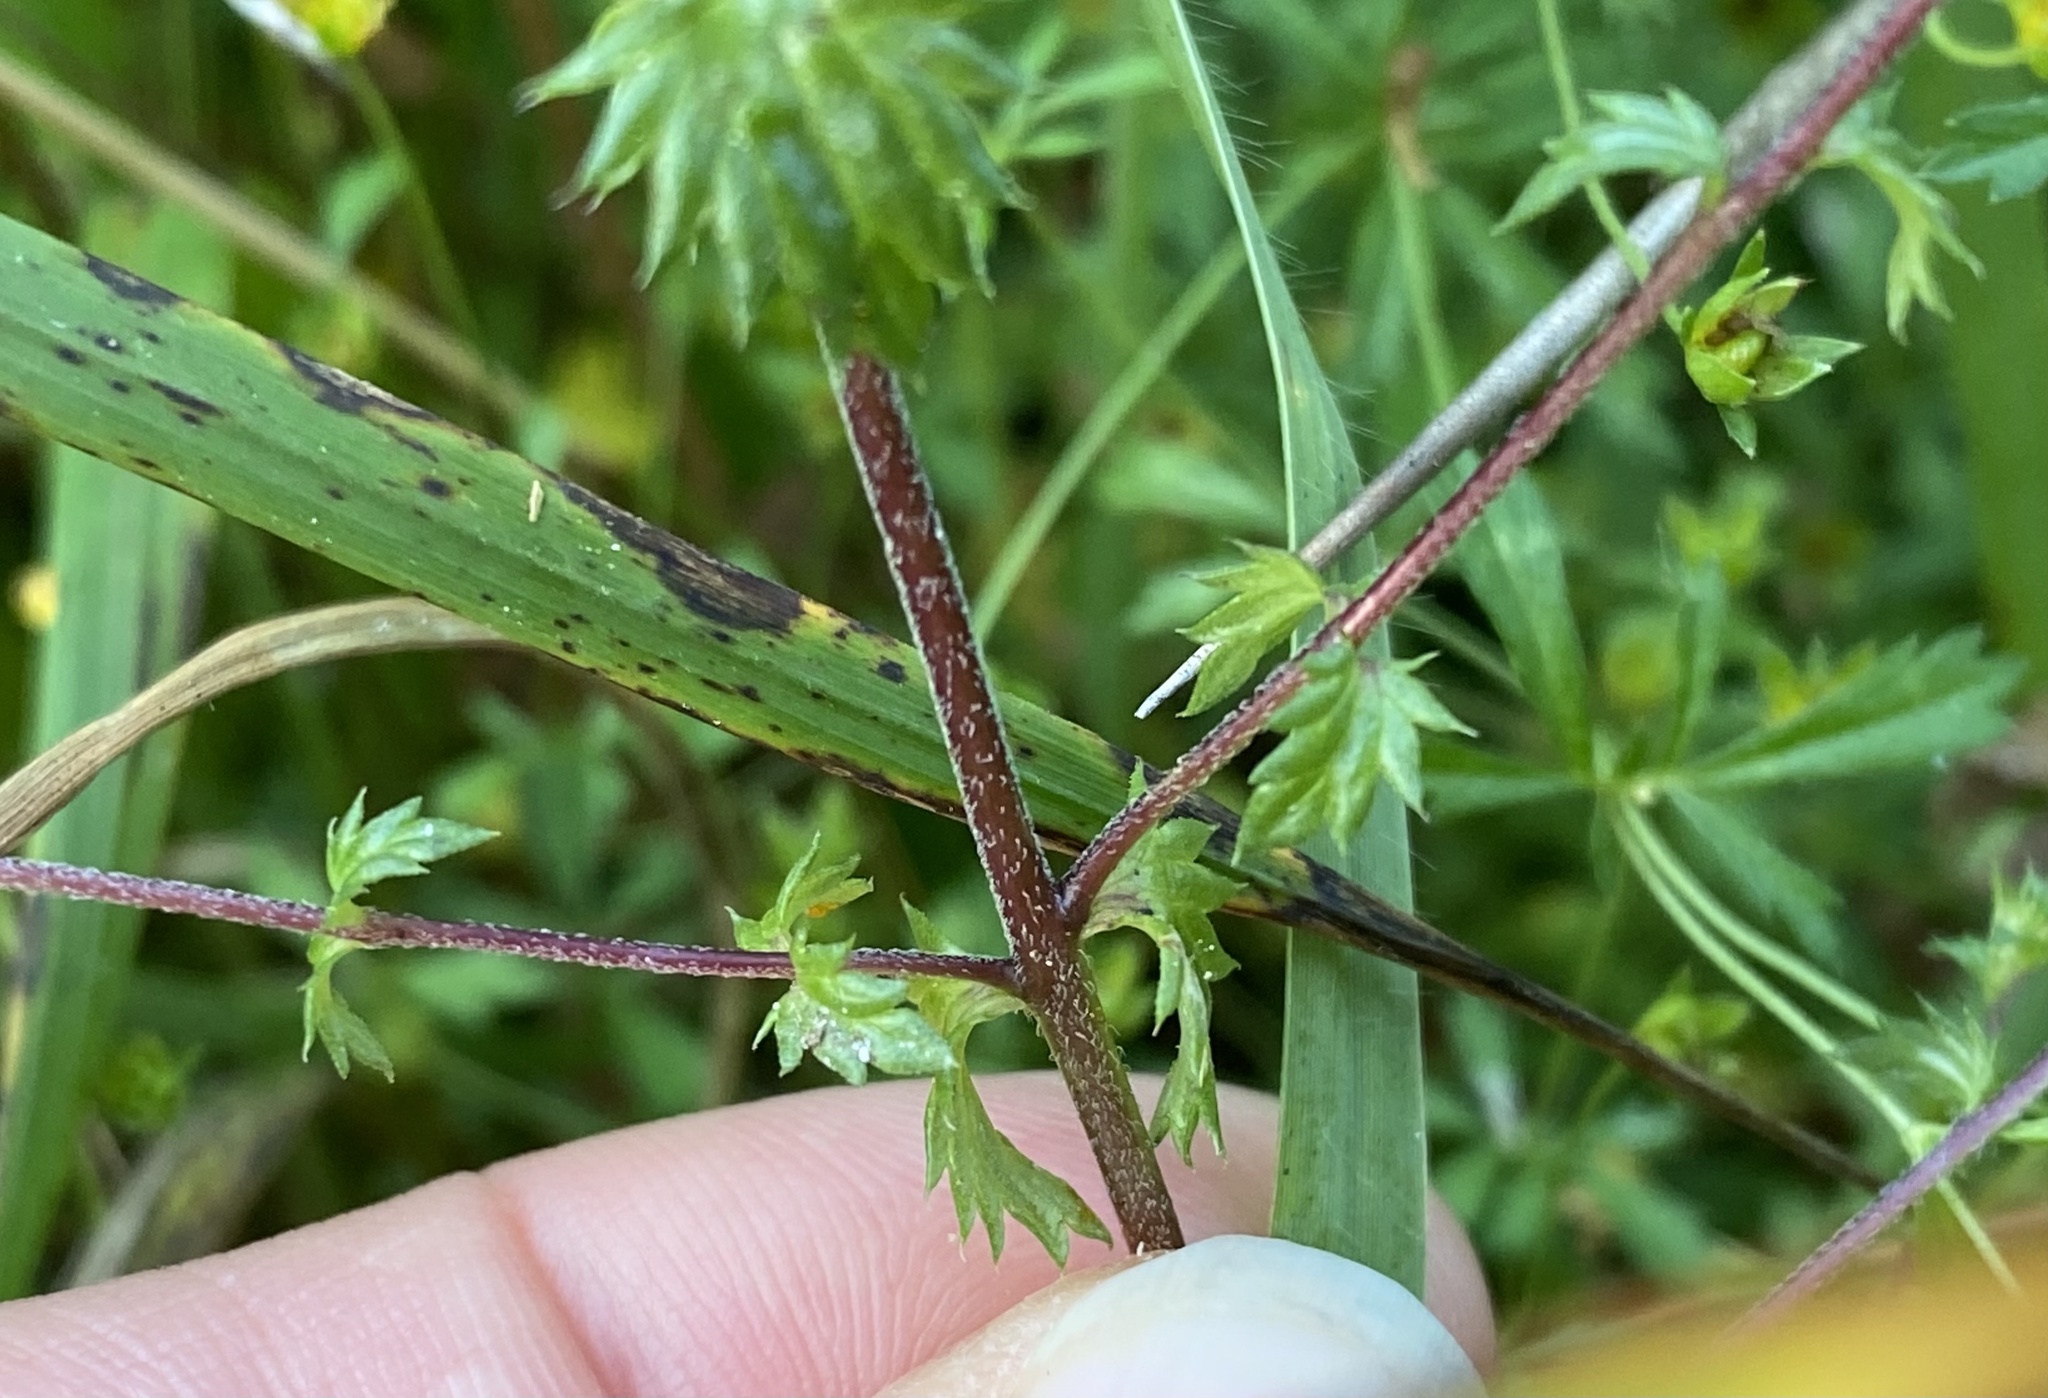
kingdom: Plantae
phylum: Tracheophyta
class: Magnoliopsida
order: Lamiales
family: Orobanchaceae
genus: Euphrasia
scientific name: Euphrasia nemorosa
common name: Common eyebright
